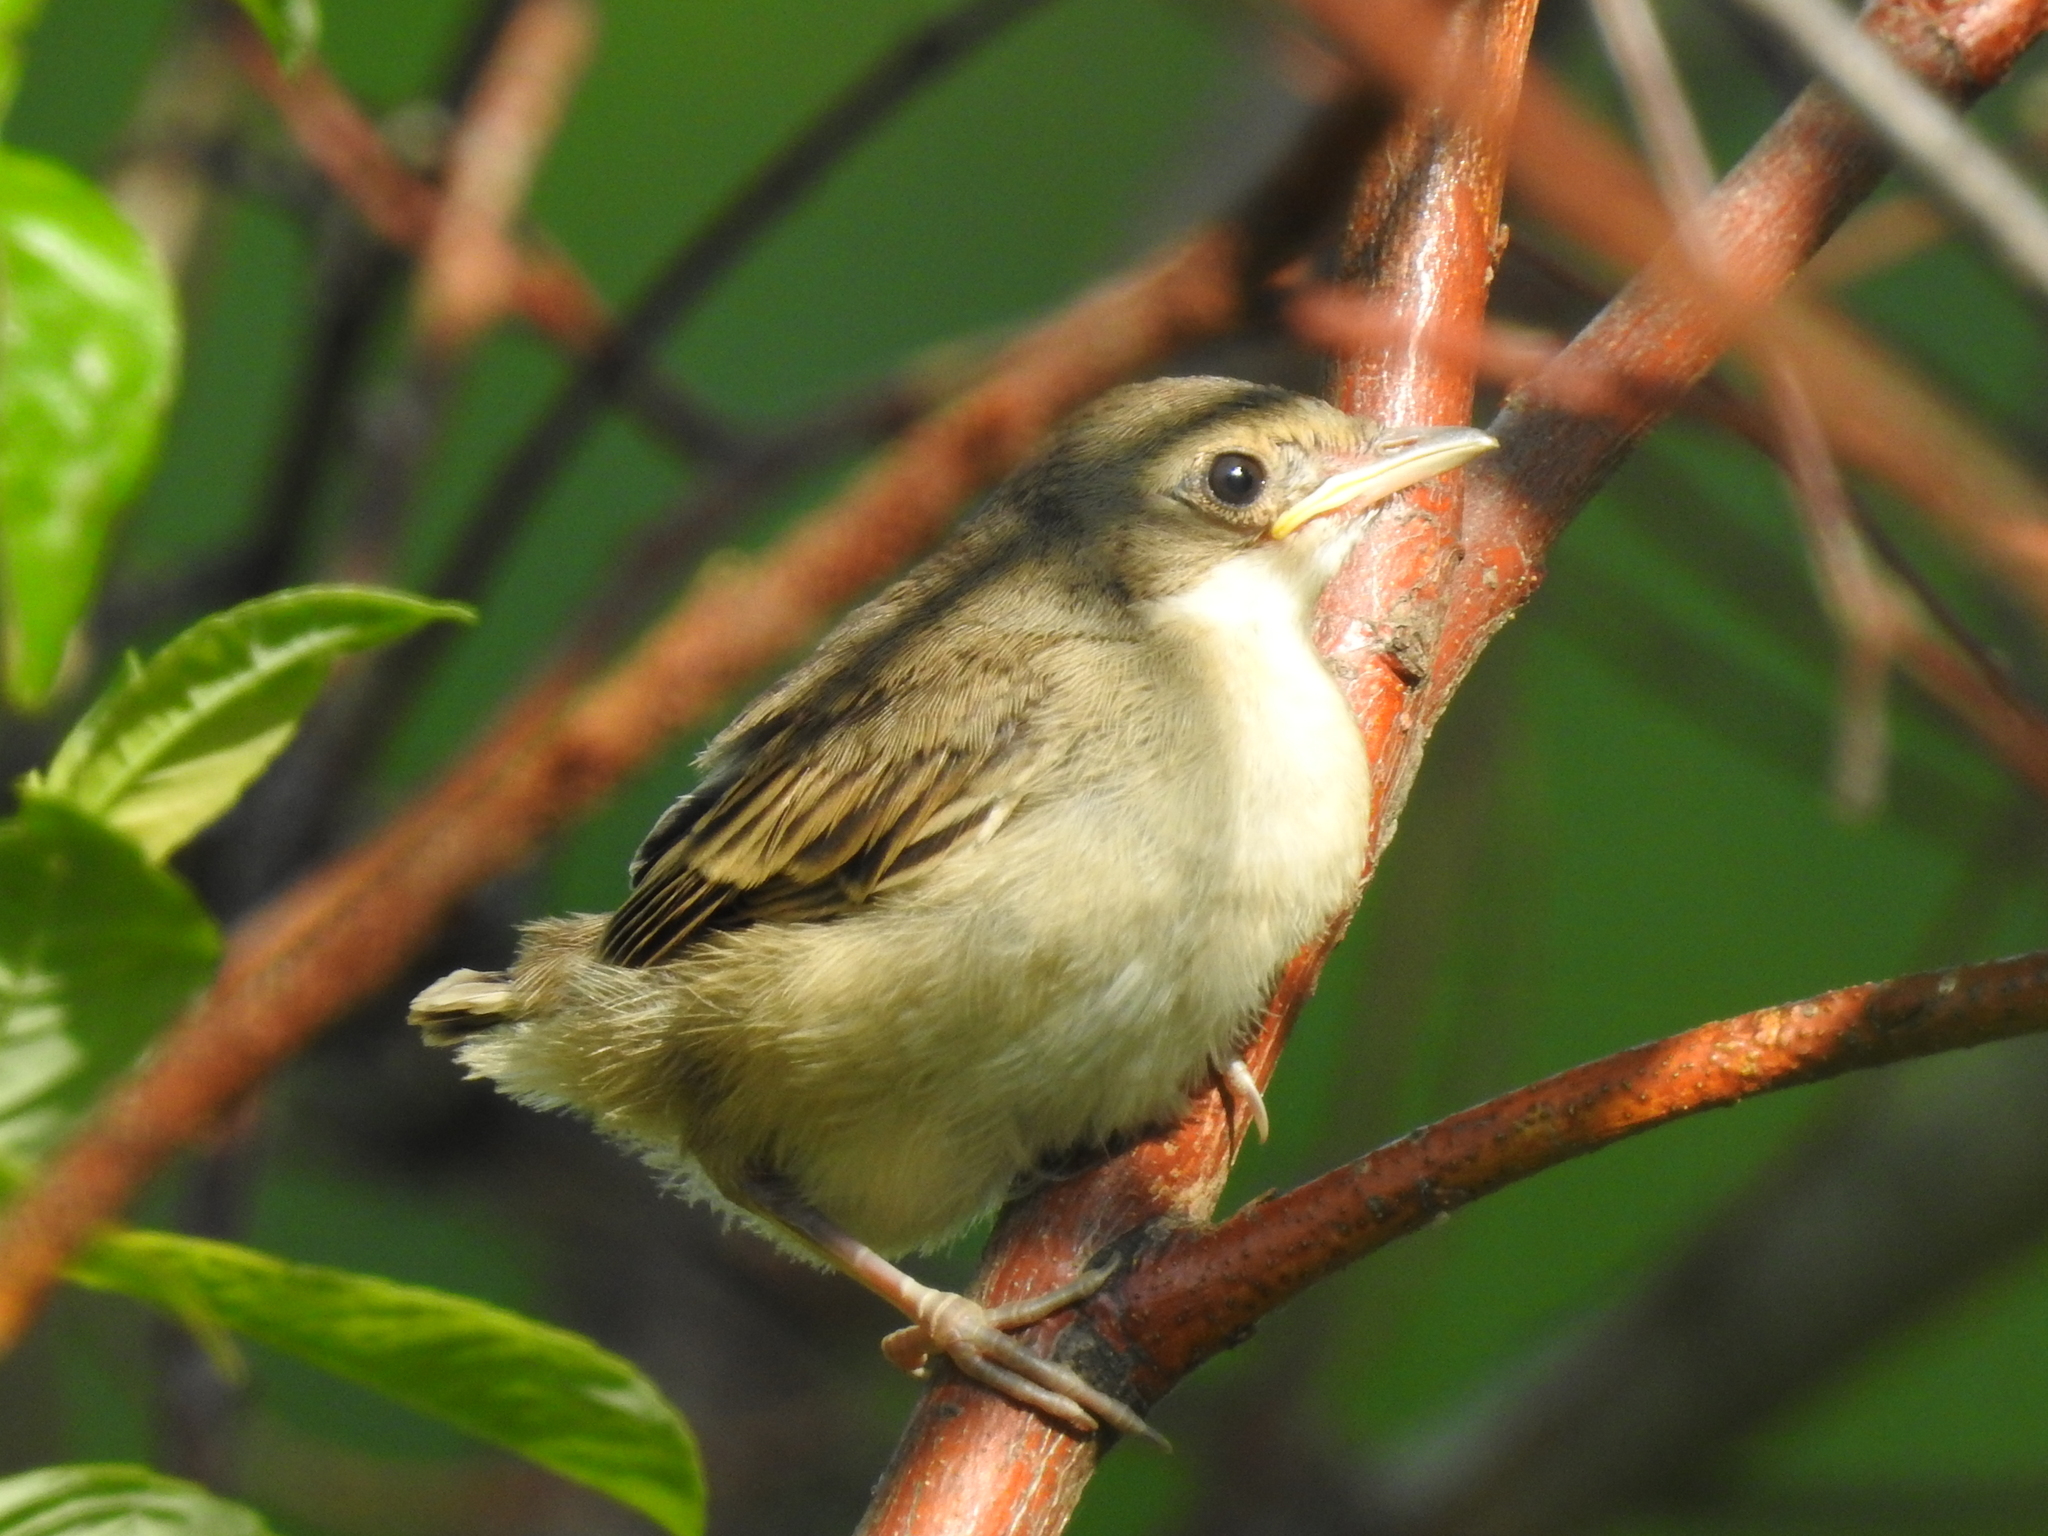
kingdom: Animalia
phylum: Chordata
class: Aves
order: Passeriformes
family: Sylviidae
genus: Sylvia
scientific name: Sylvia communis
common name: Common whitethroat
